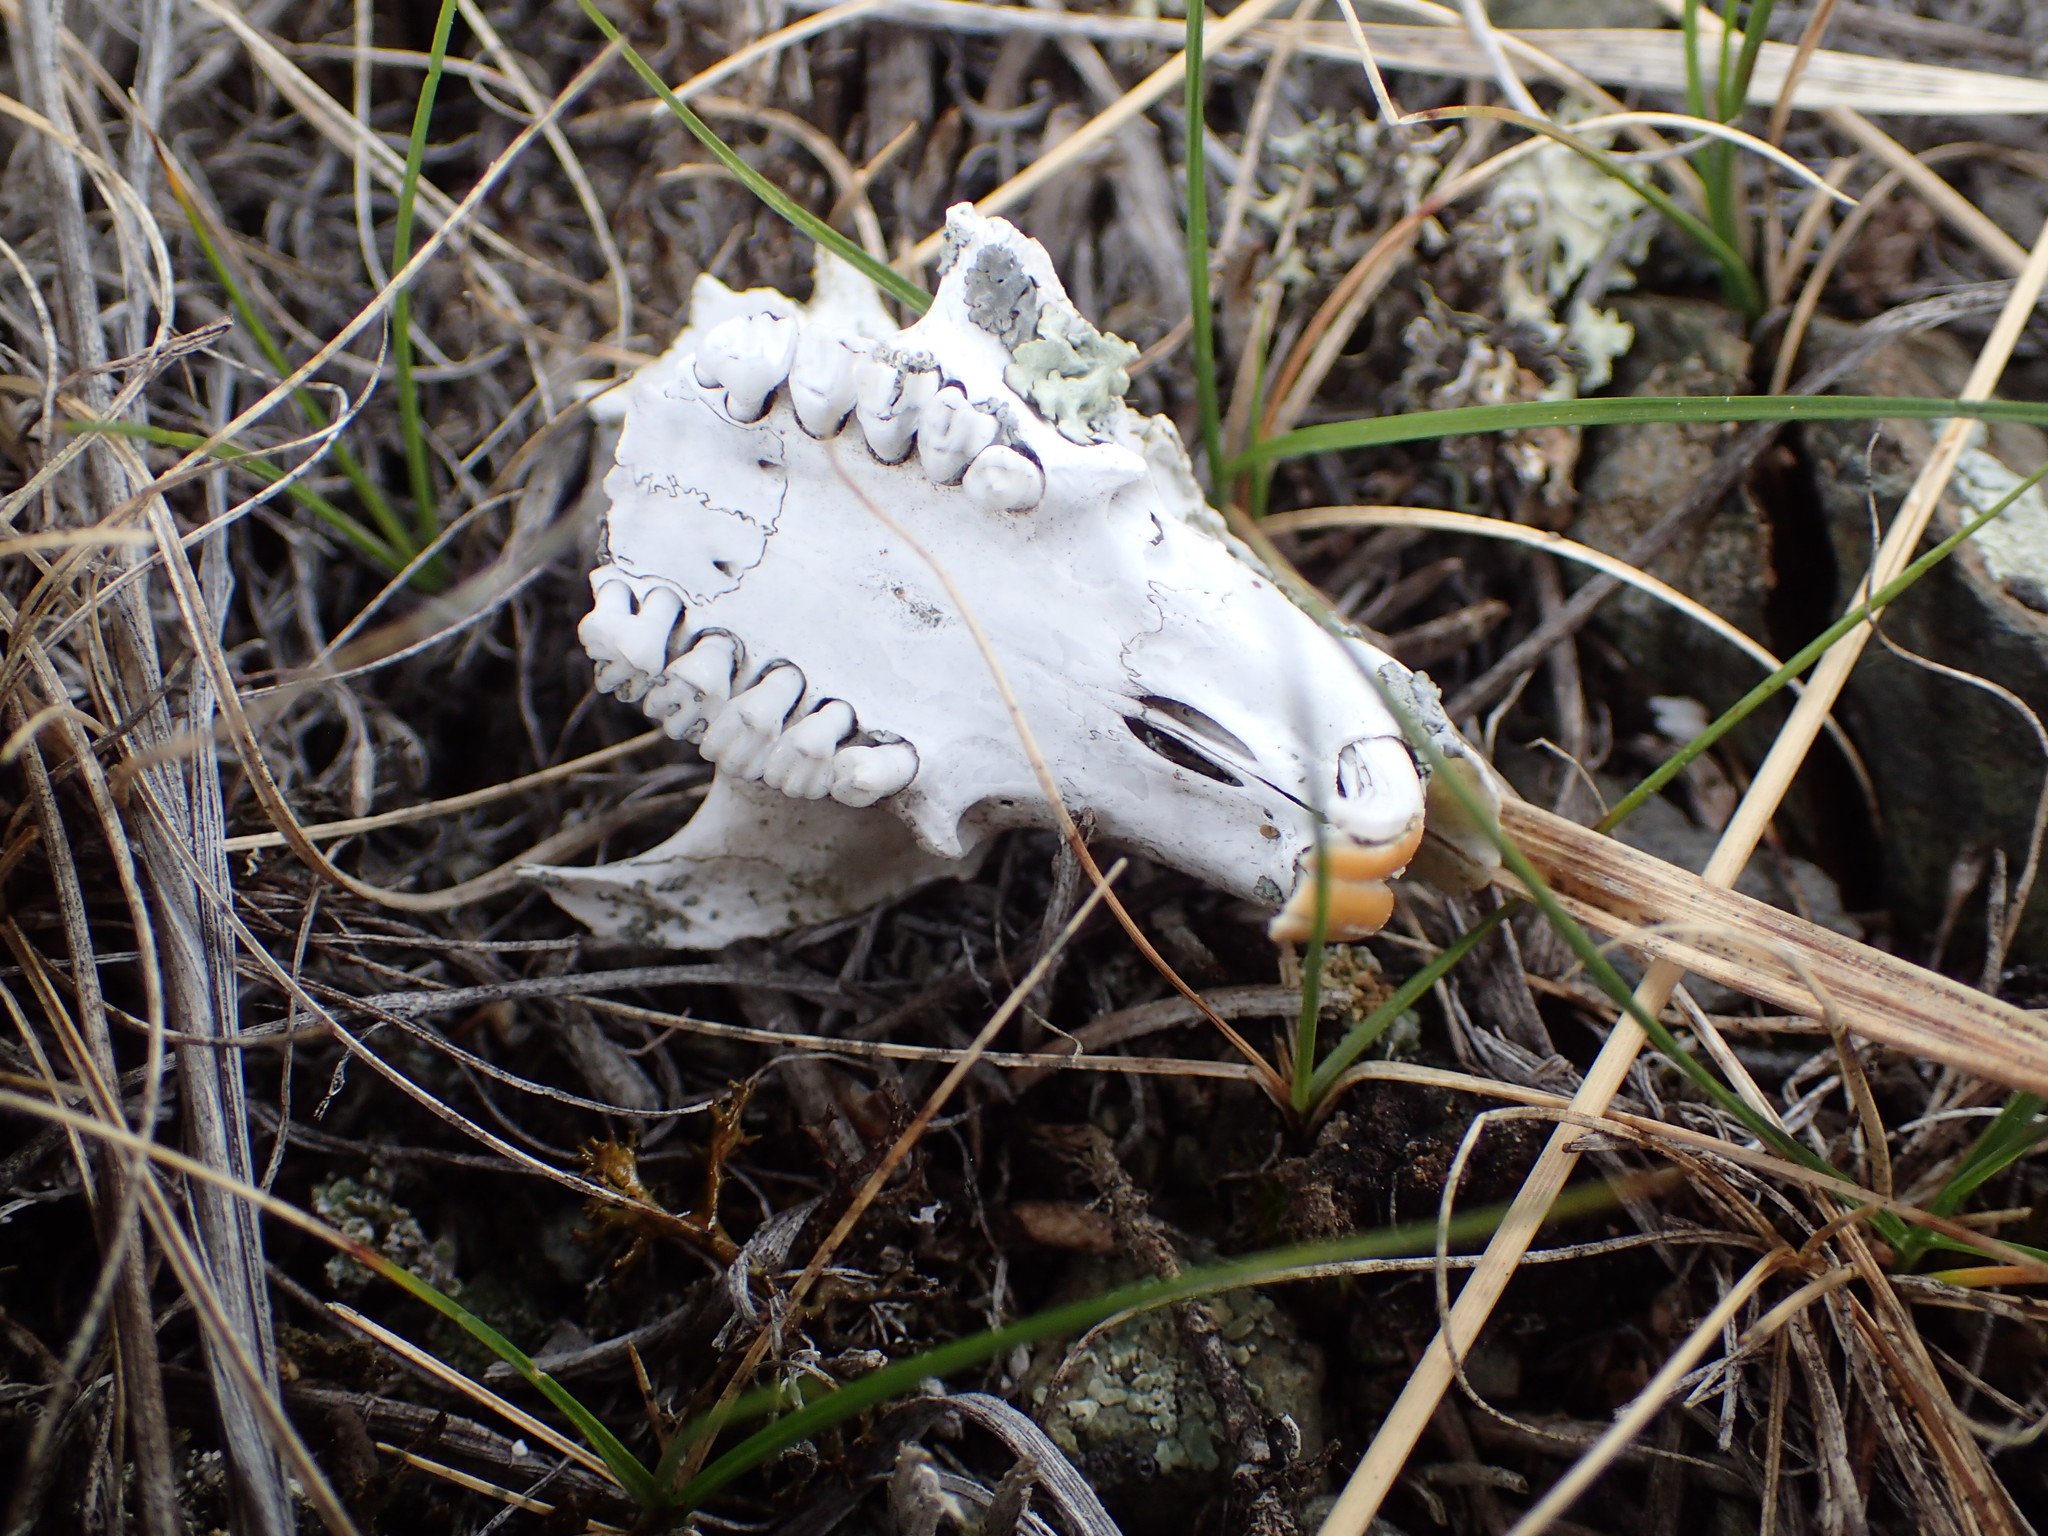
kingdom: Animalia
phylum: Chordata
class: Mammalia
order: Rodentia
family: Sciuridae
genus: Urocitellus
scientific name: Urocitellus parryii
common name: Arctic ground squirrel
